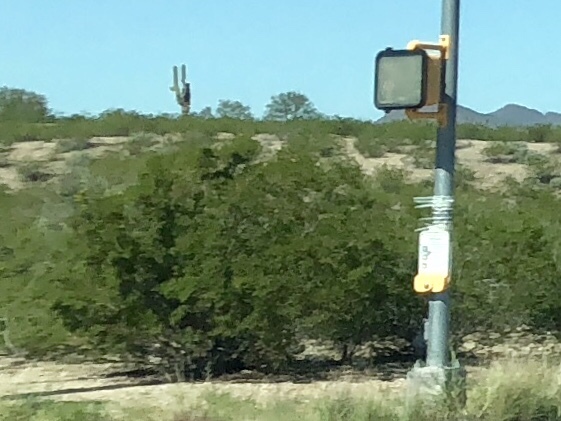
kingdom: Plantae
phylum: Tracheophyta
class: Magnoliopsida
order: Zygophyllales
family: Zygophyllaceae
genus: Larrea
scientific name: Larrea tridentata
